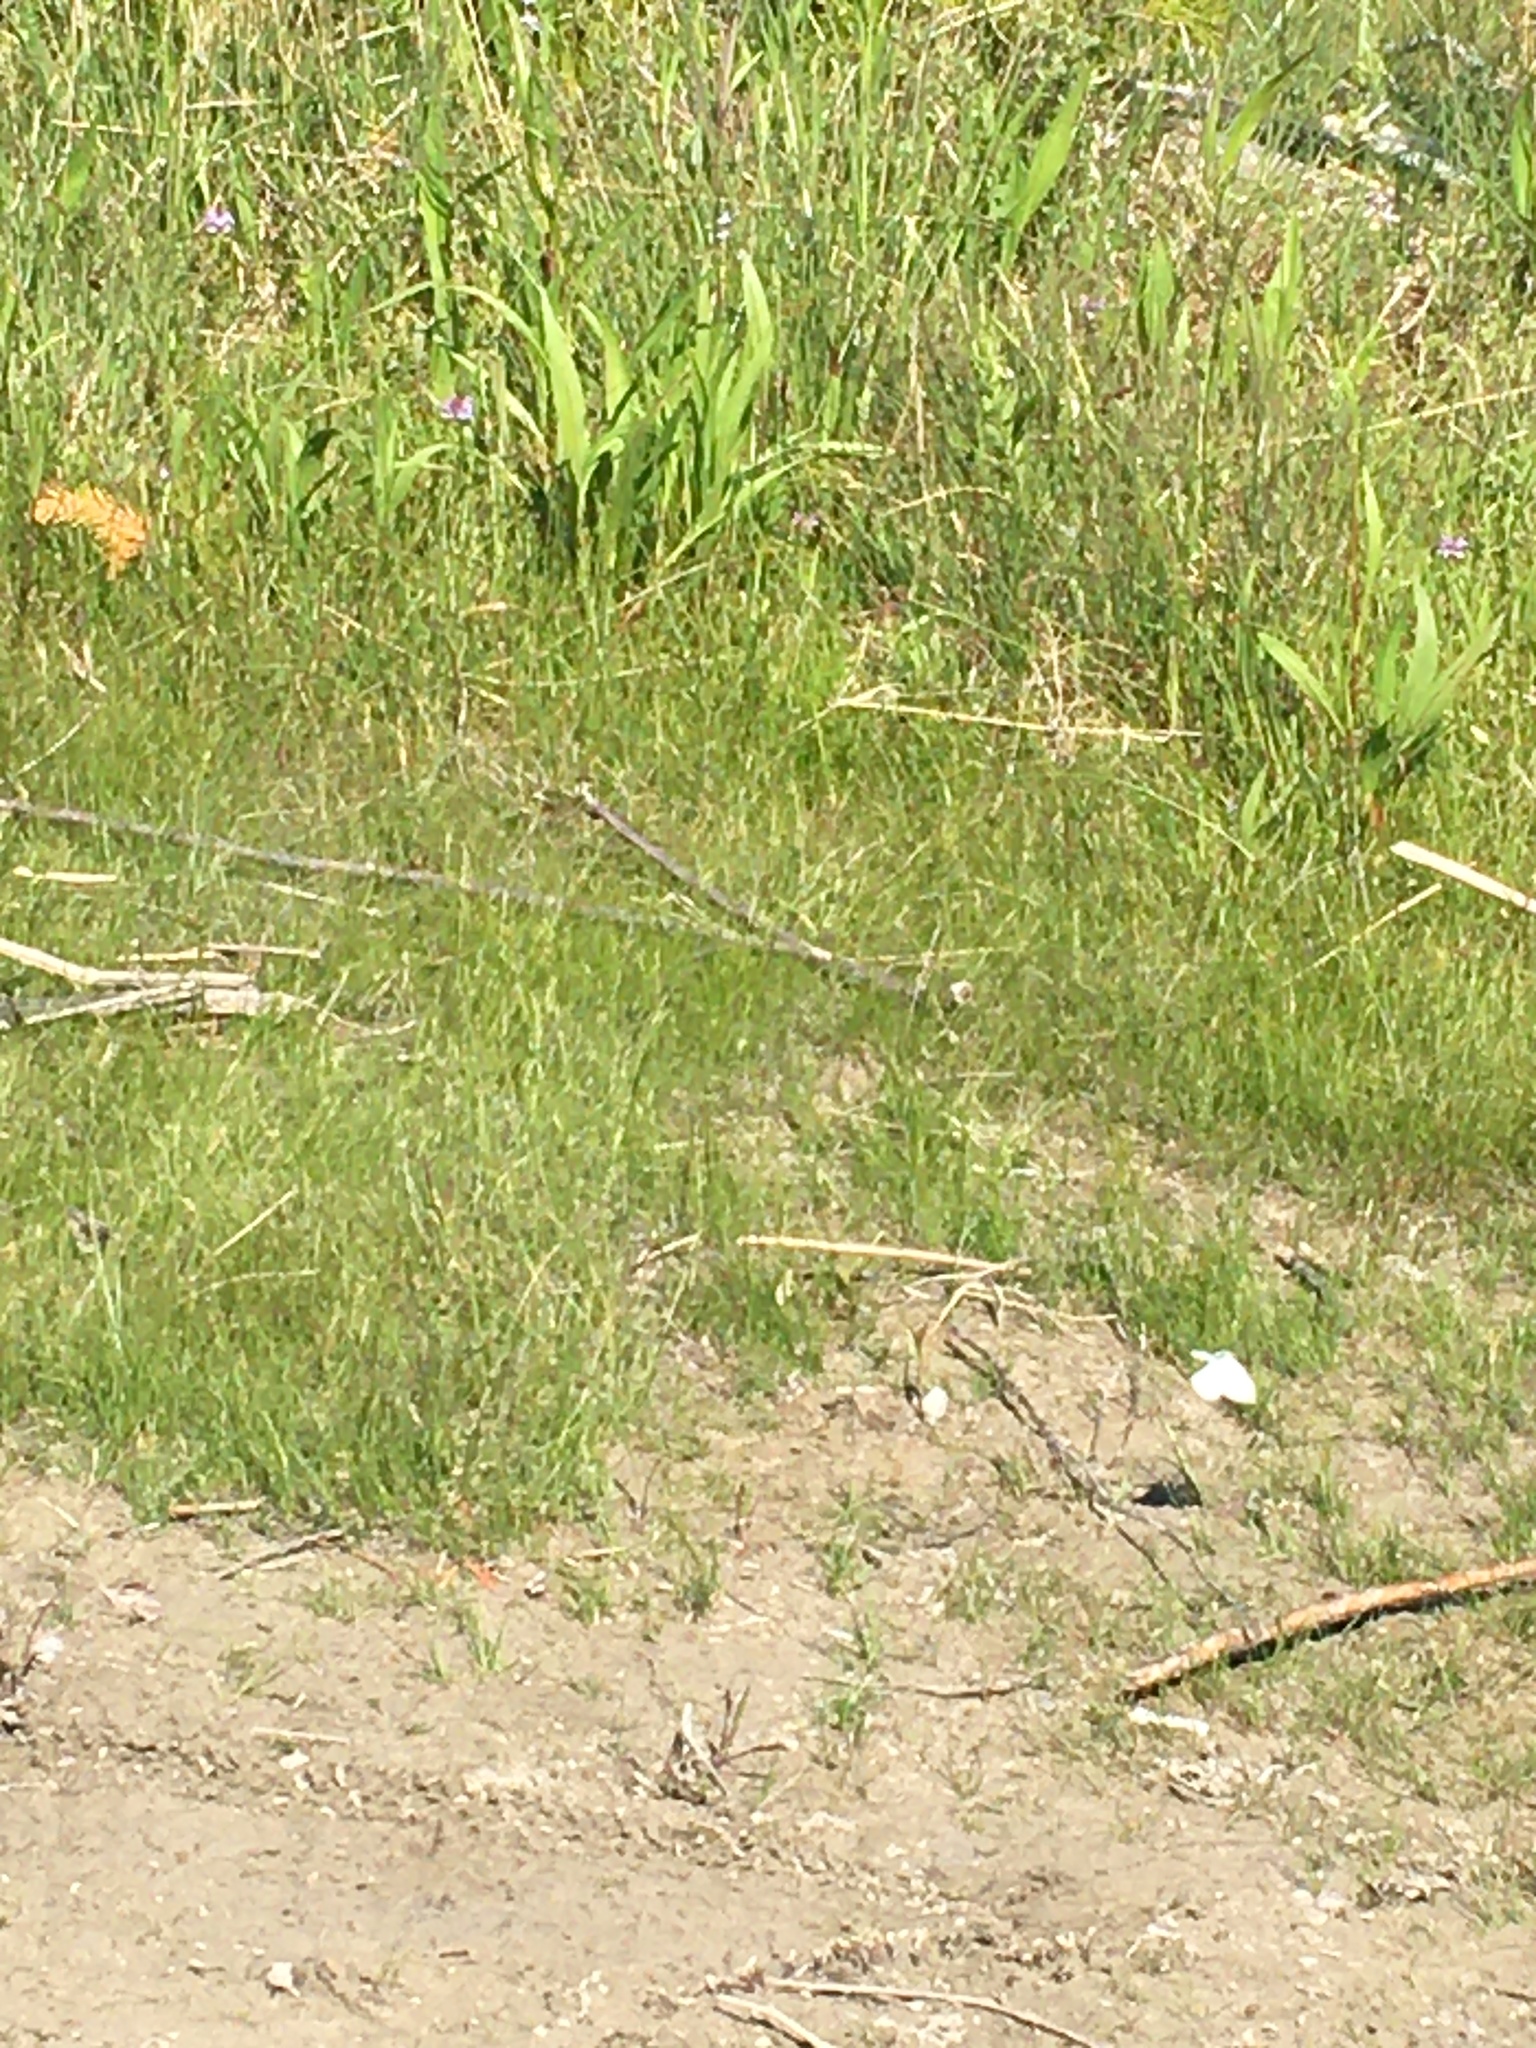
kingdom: Animalia
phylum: Arthropoda
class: Insecta
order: Lepidoptera
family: Pieridae
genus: Pieris
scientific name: Pieris rapae
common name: Small white
